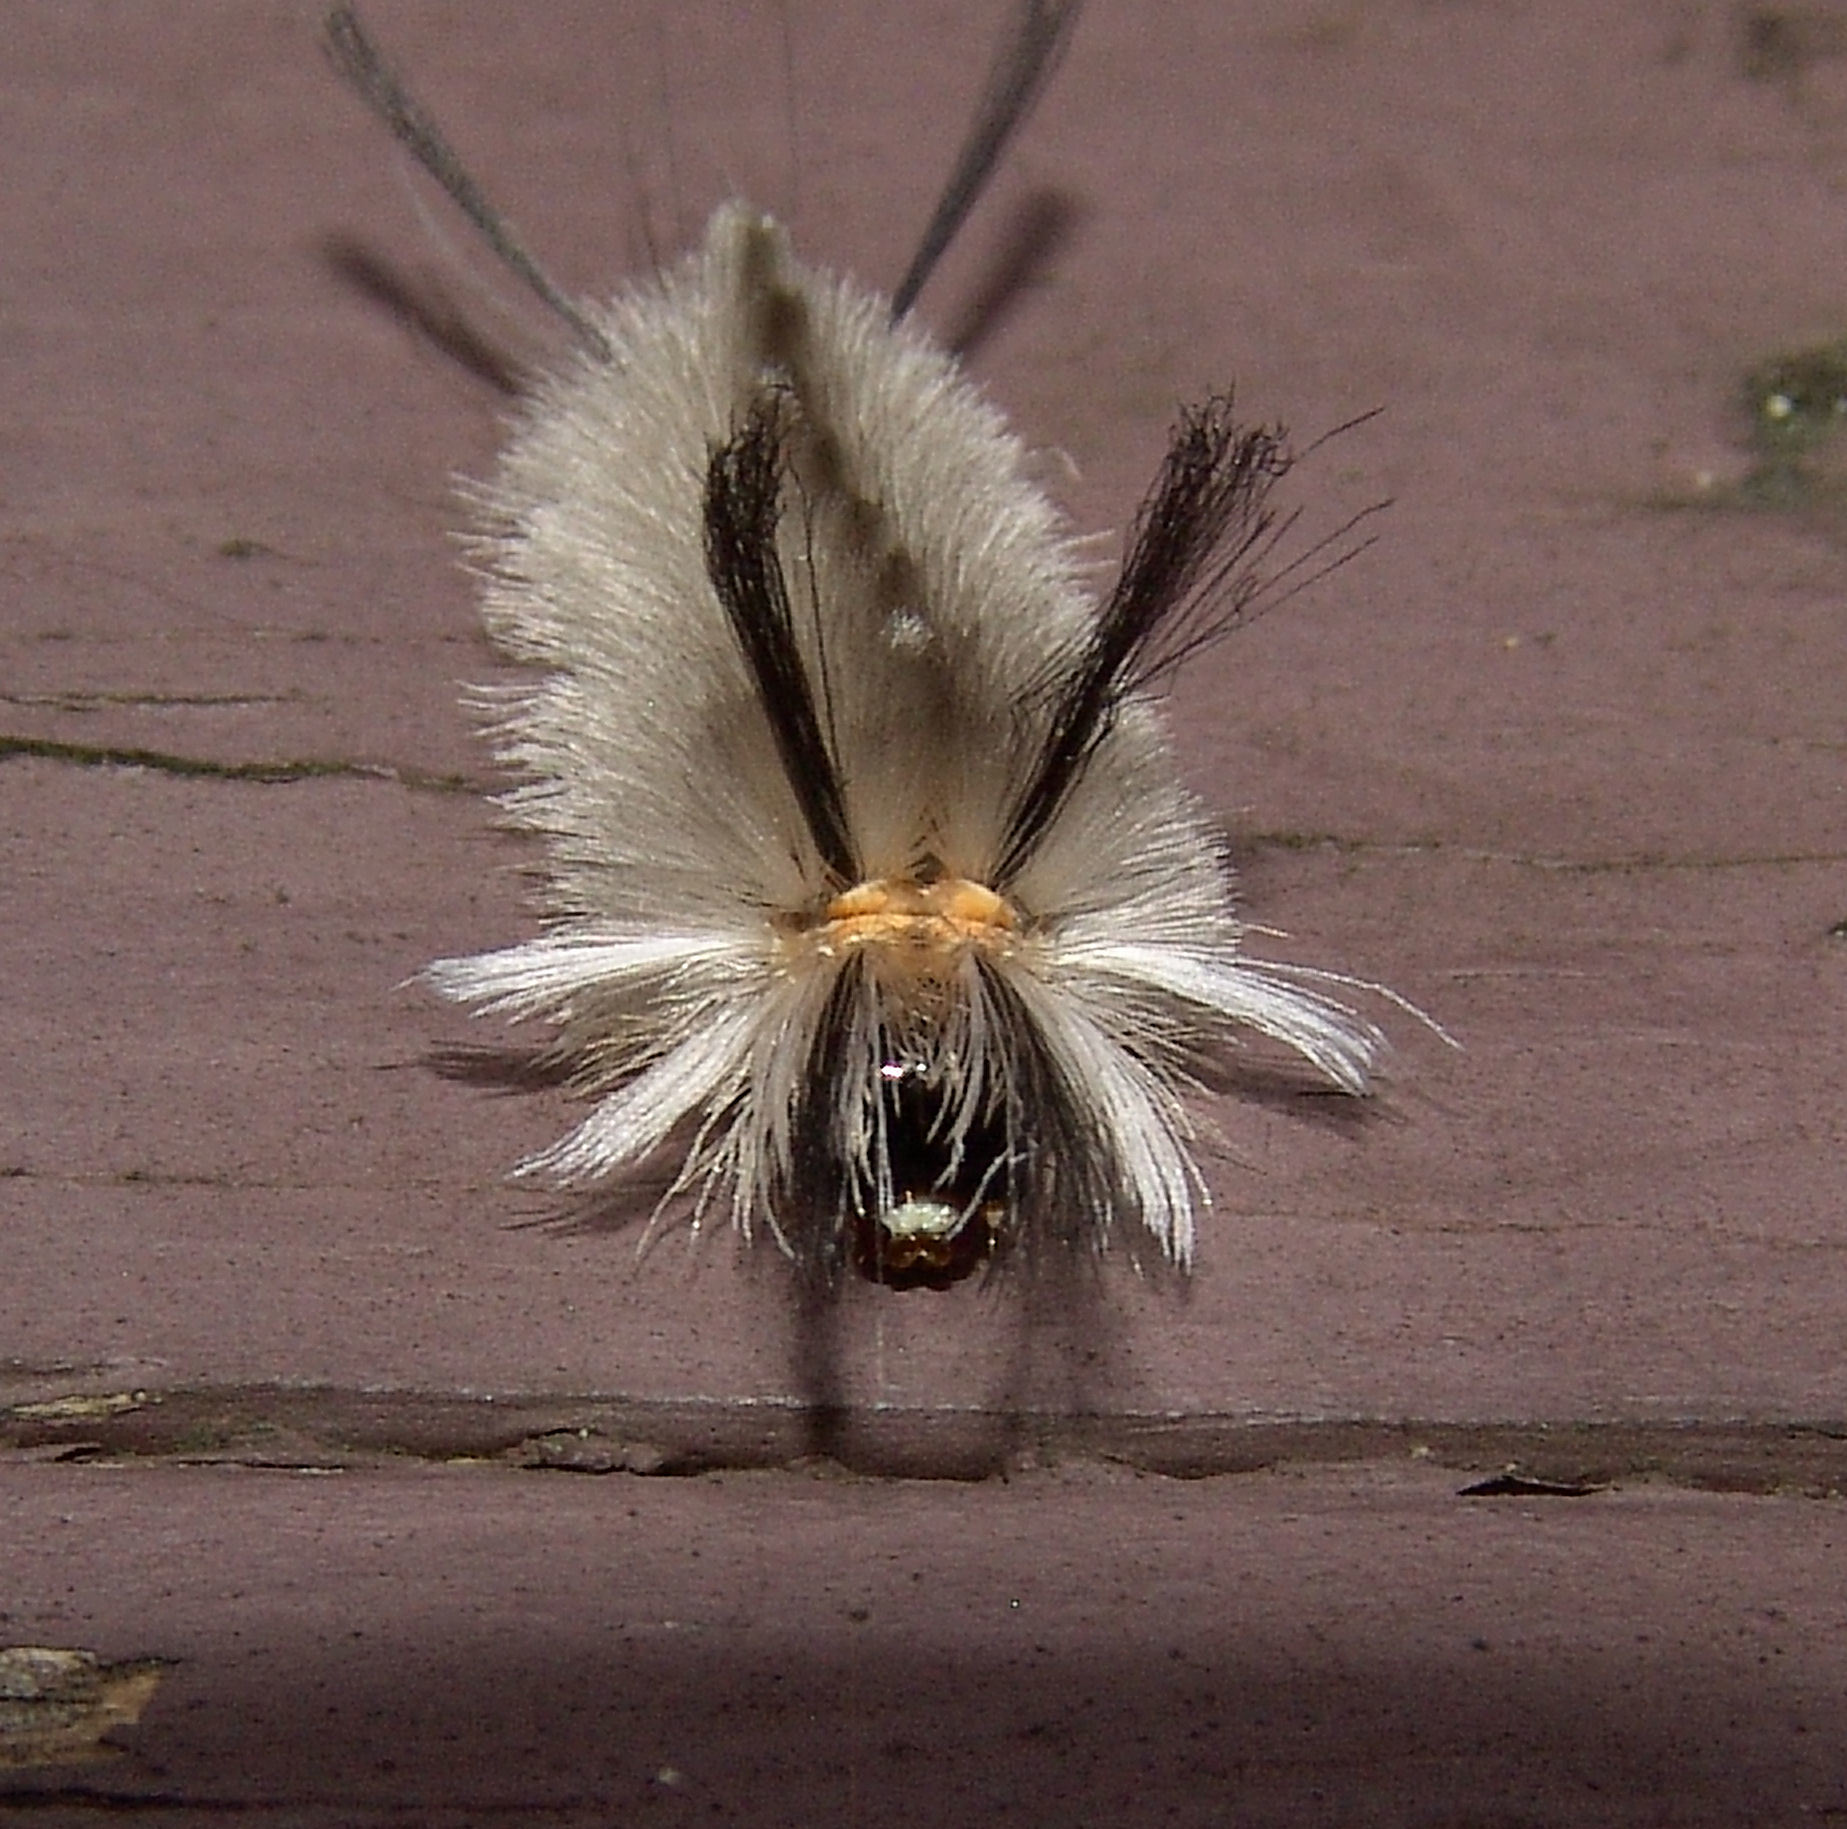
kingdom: Animalia
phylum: Arthropoda
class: Insecta
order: Lepidoptera
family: Erebidae
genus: Halysidota
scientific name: Halysidota tessellaris
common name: Banded tussock moth
